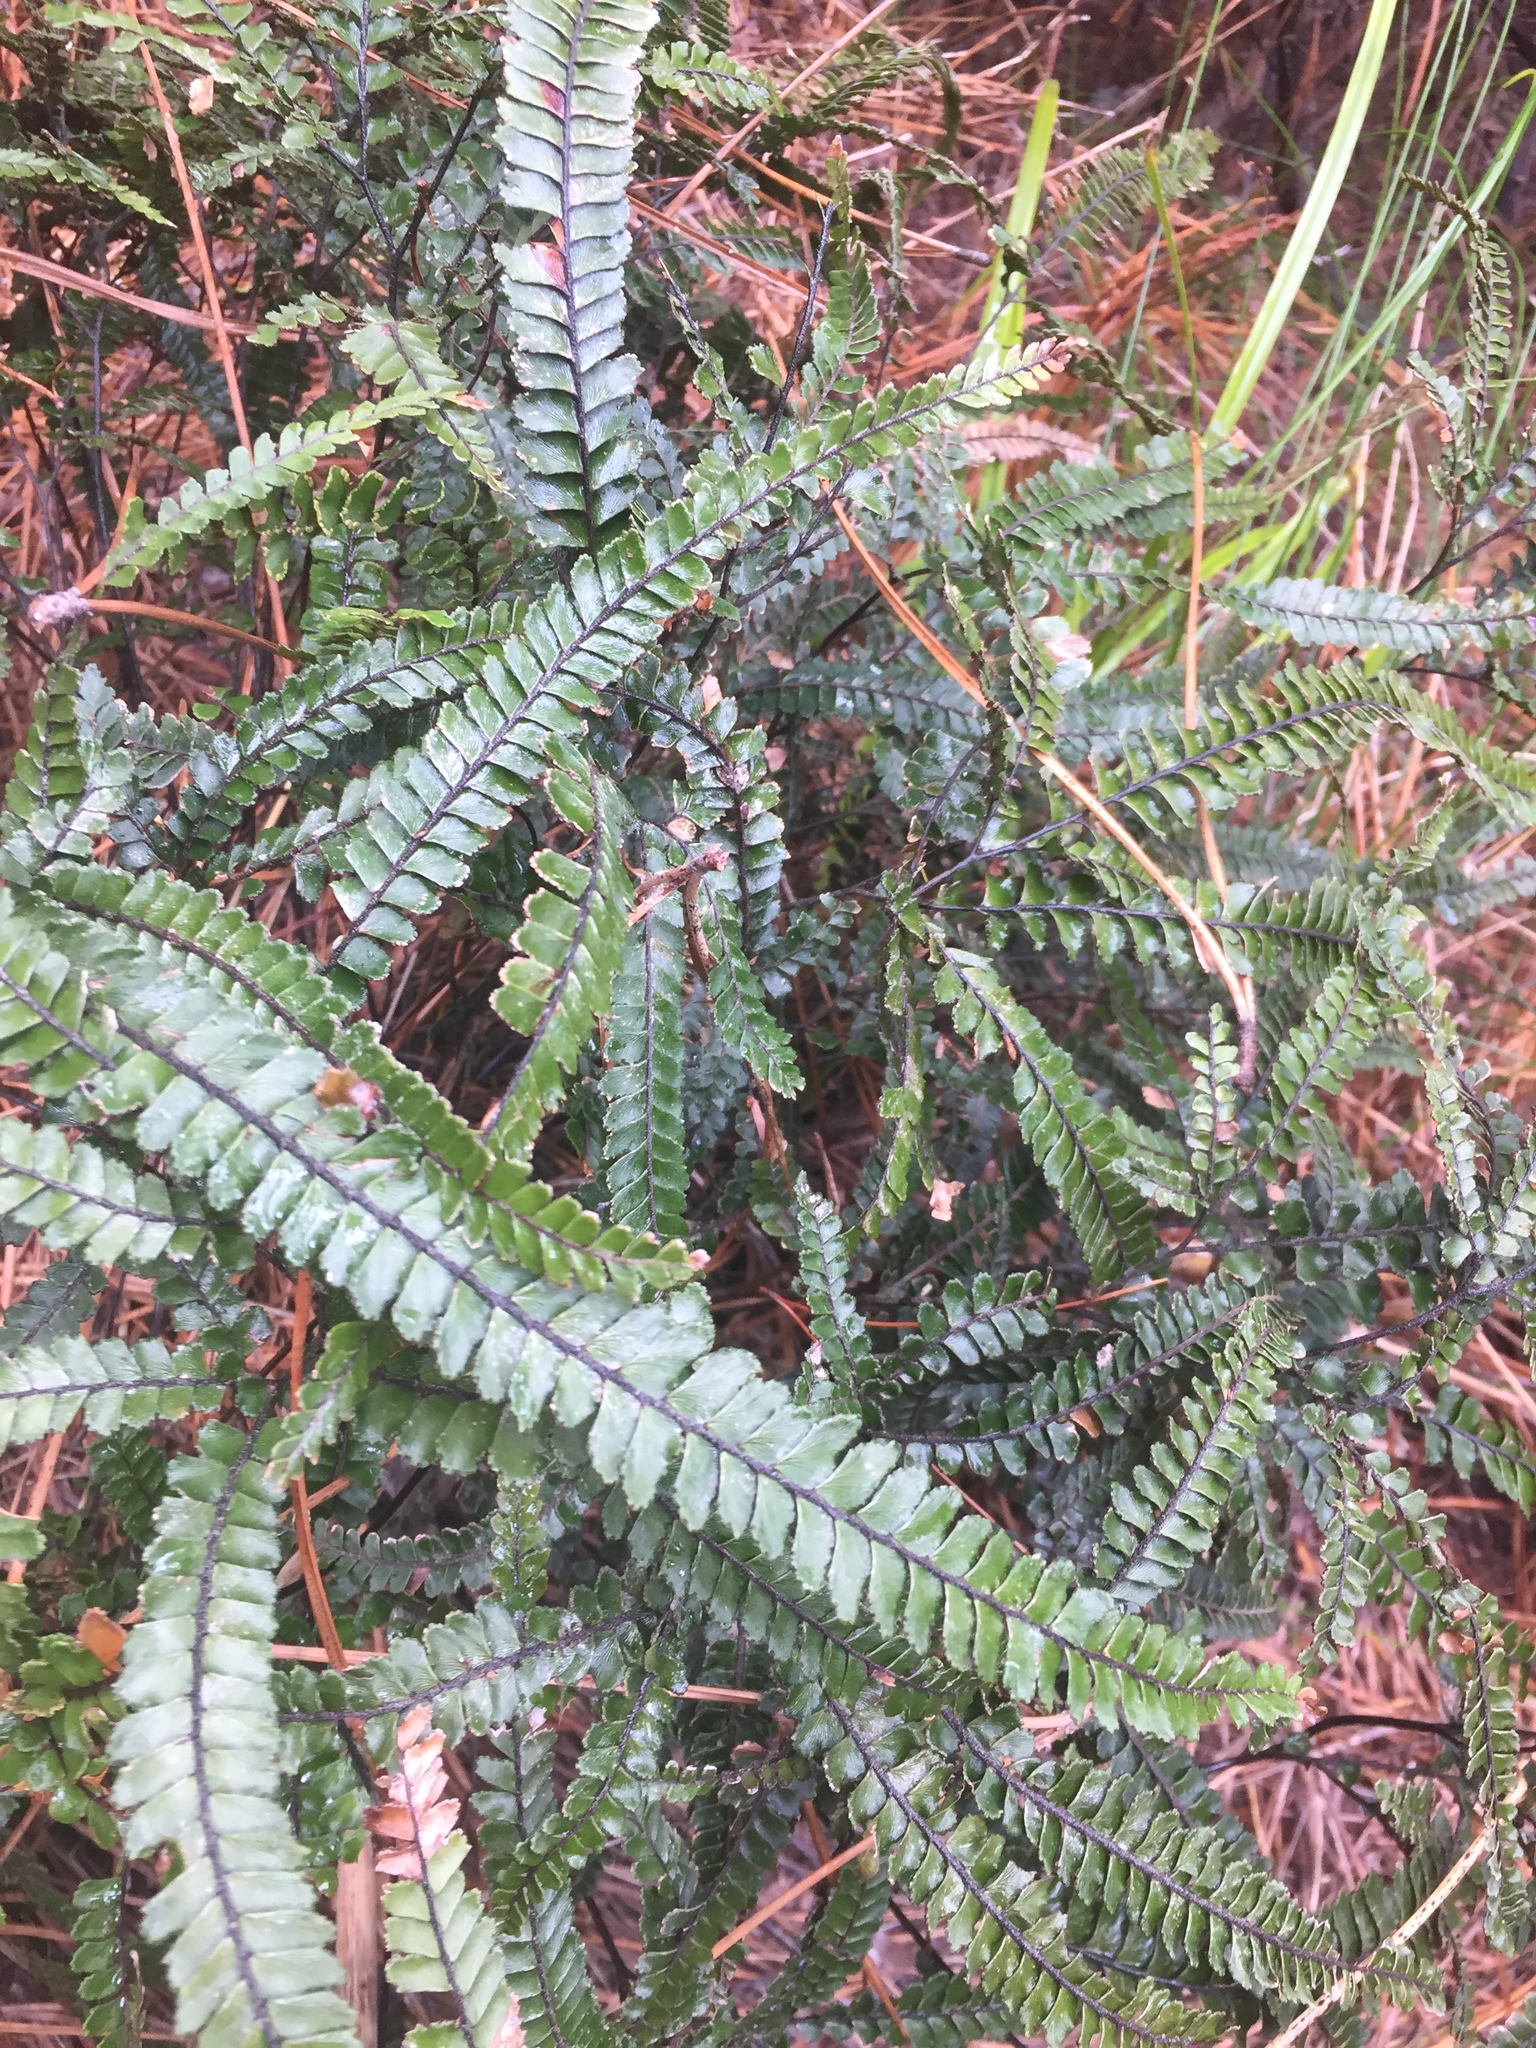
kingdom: Plantae
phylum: Tracheophyta
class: Polypodiopsida
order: Polypodiales
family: Pteridaceae
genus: Adiantum
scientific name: Adiantum hispidulum
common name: Rough maidenhair
